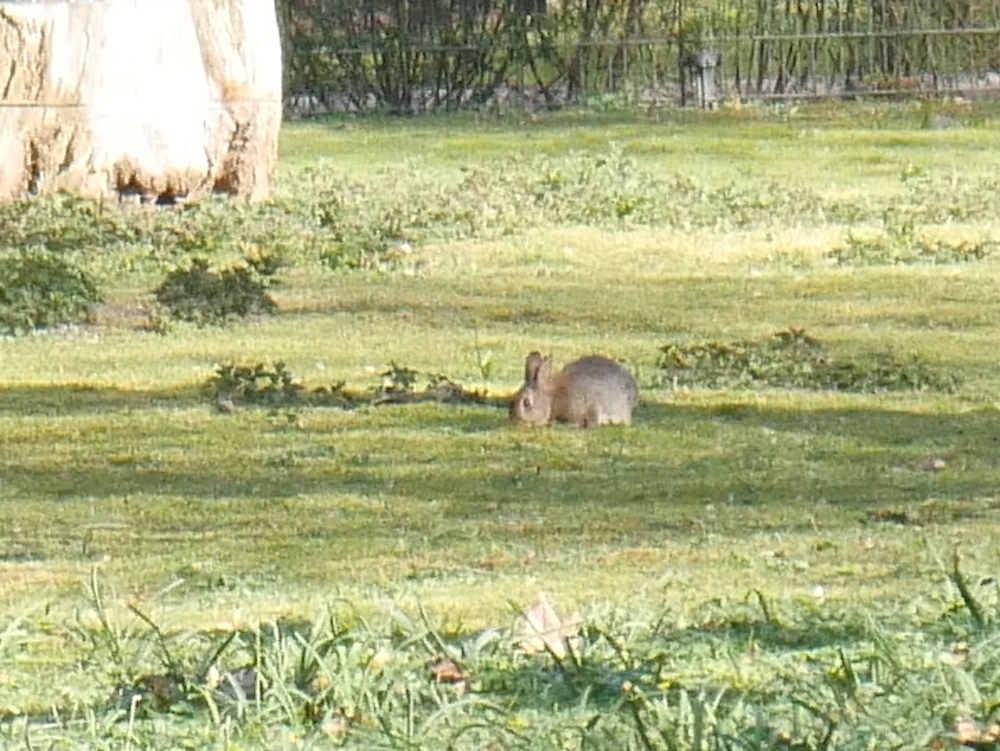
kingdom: Animalia
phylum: Chordata
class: Mammalia
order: Lagomorpha
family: Leporidae
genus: Oryctolagus
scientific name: Oryctolagus cuniculus
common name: European rabbit
